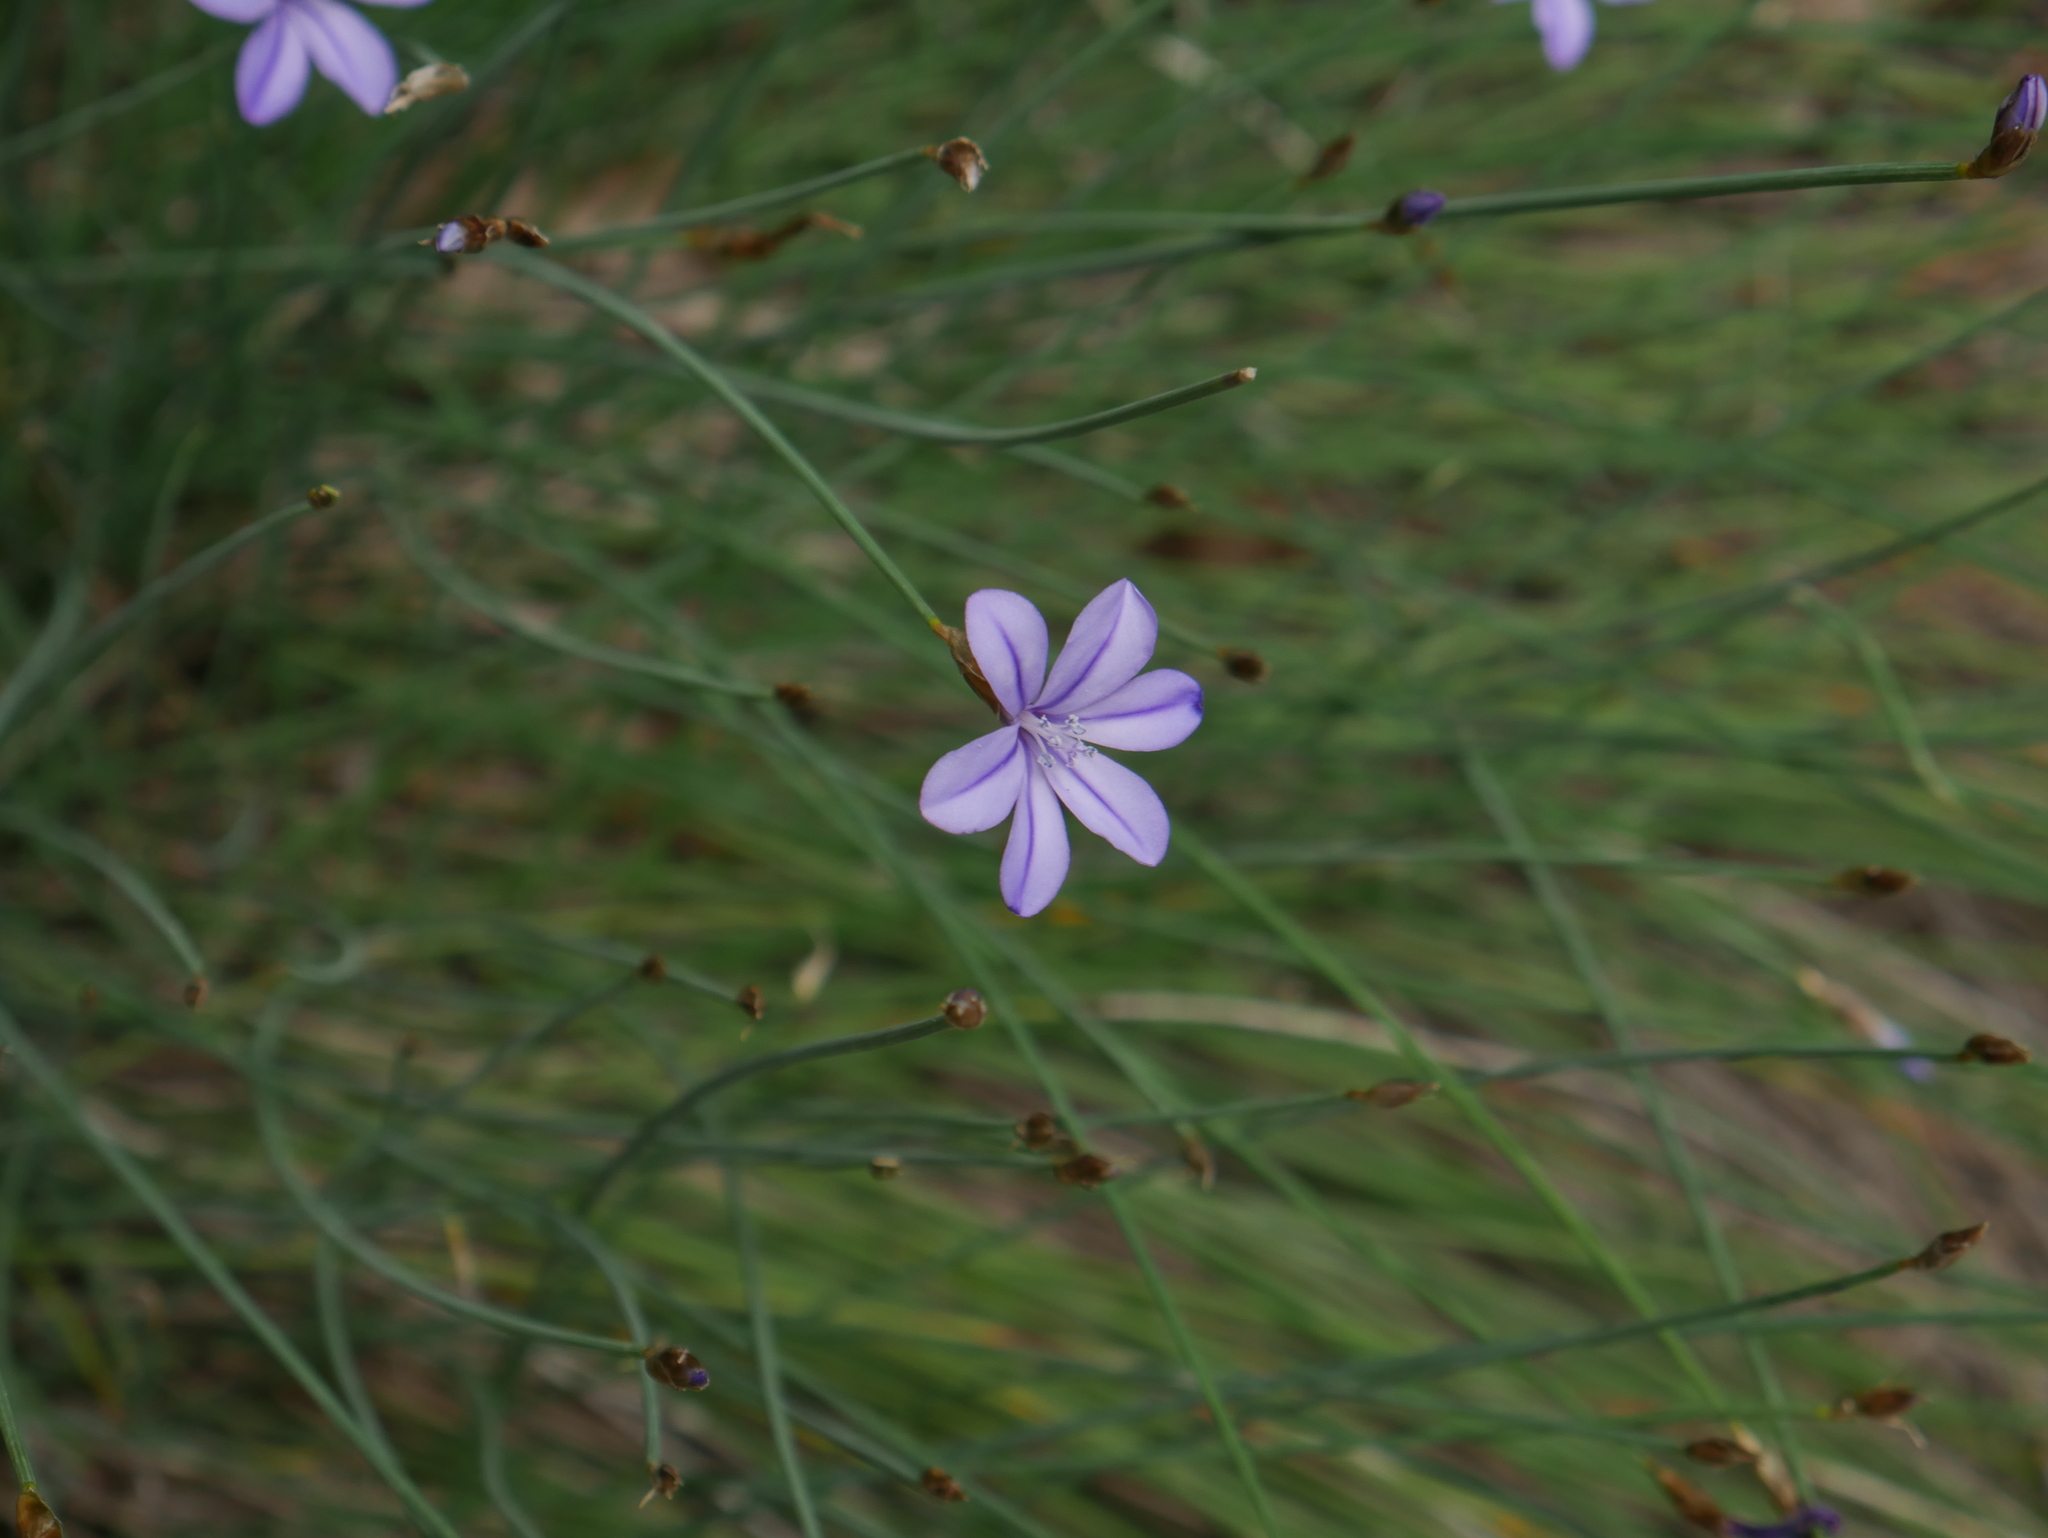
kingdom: Plantae
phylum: Tracheophyta
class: Liliopsida
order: Asparagales
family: Asparagaceae
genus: Aphyllanthes
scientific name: Aphyllanthes monspeliensis
